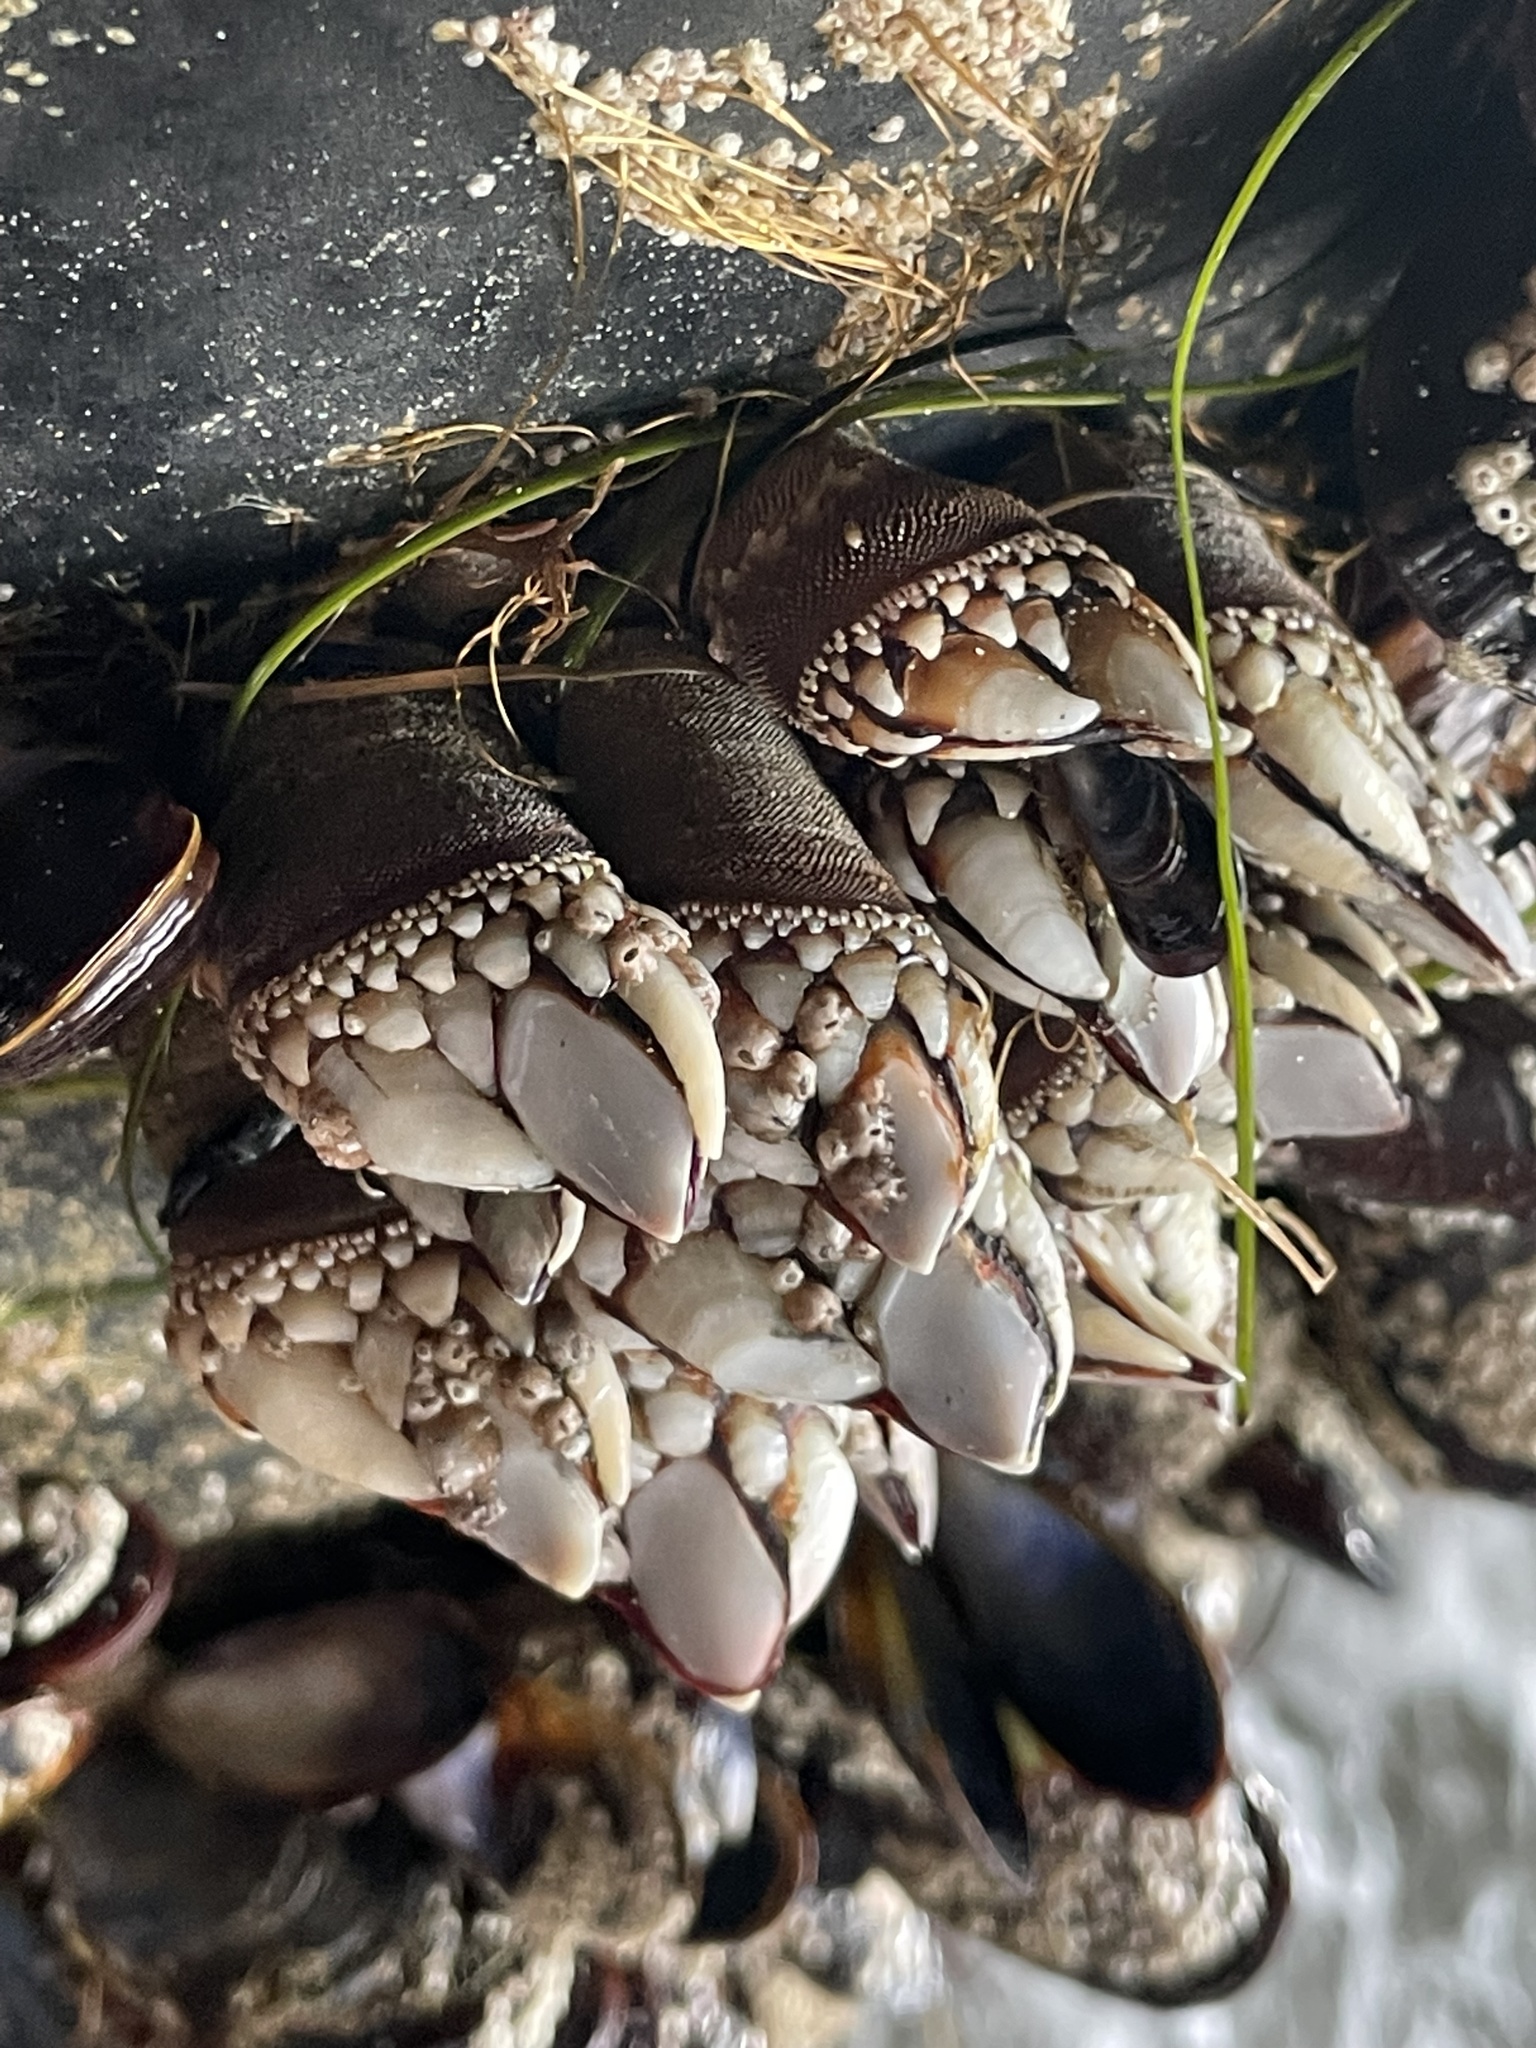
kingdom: Animalia
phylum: Arthropoda
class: Maxillopoda
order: Pedunculata
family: Pollicipedidae
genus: Pollicipes
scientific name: Pollicipes polymerus
